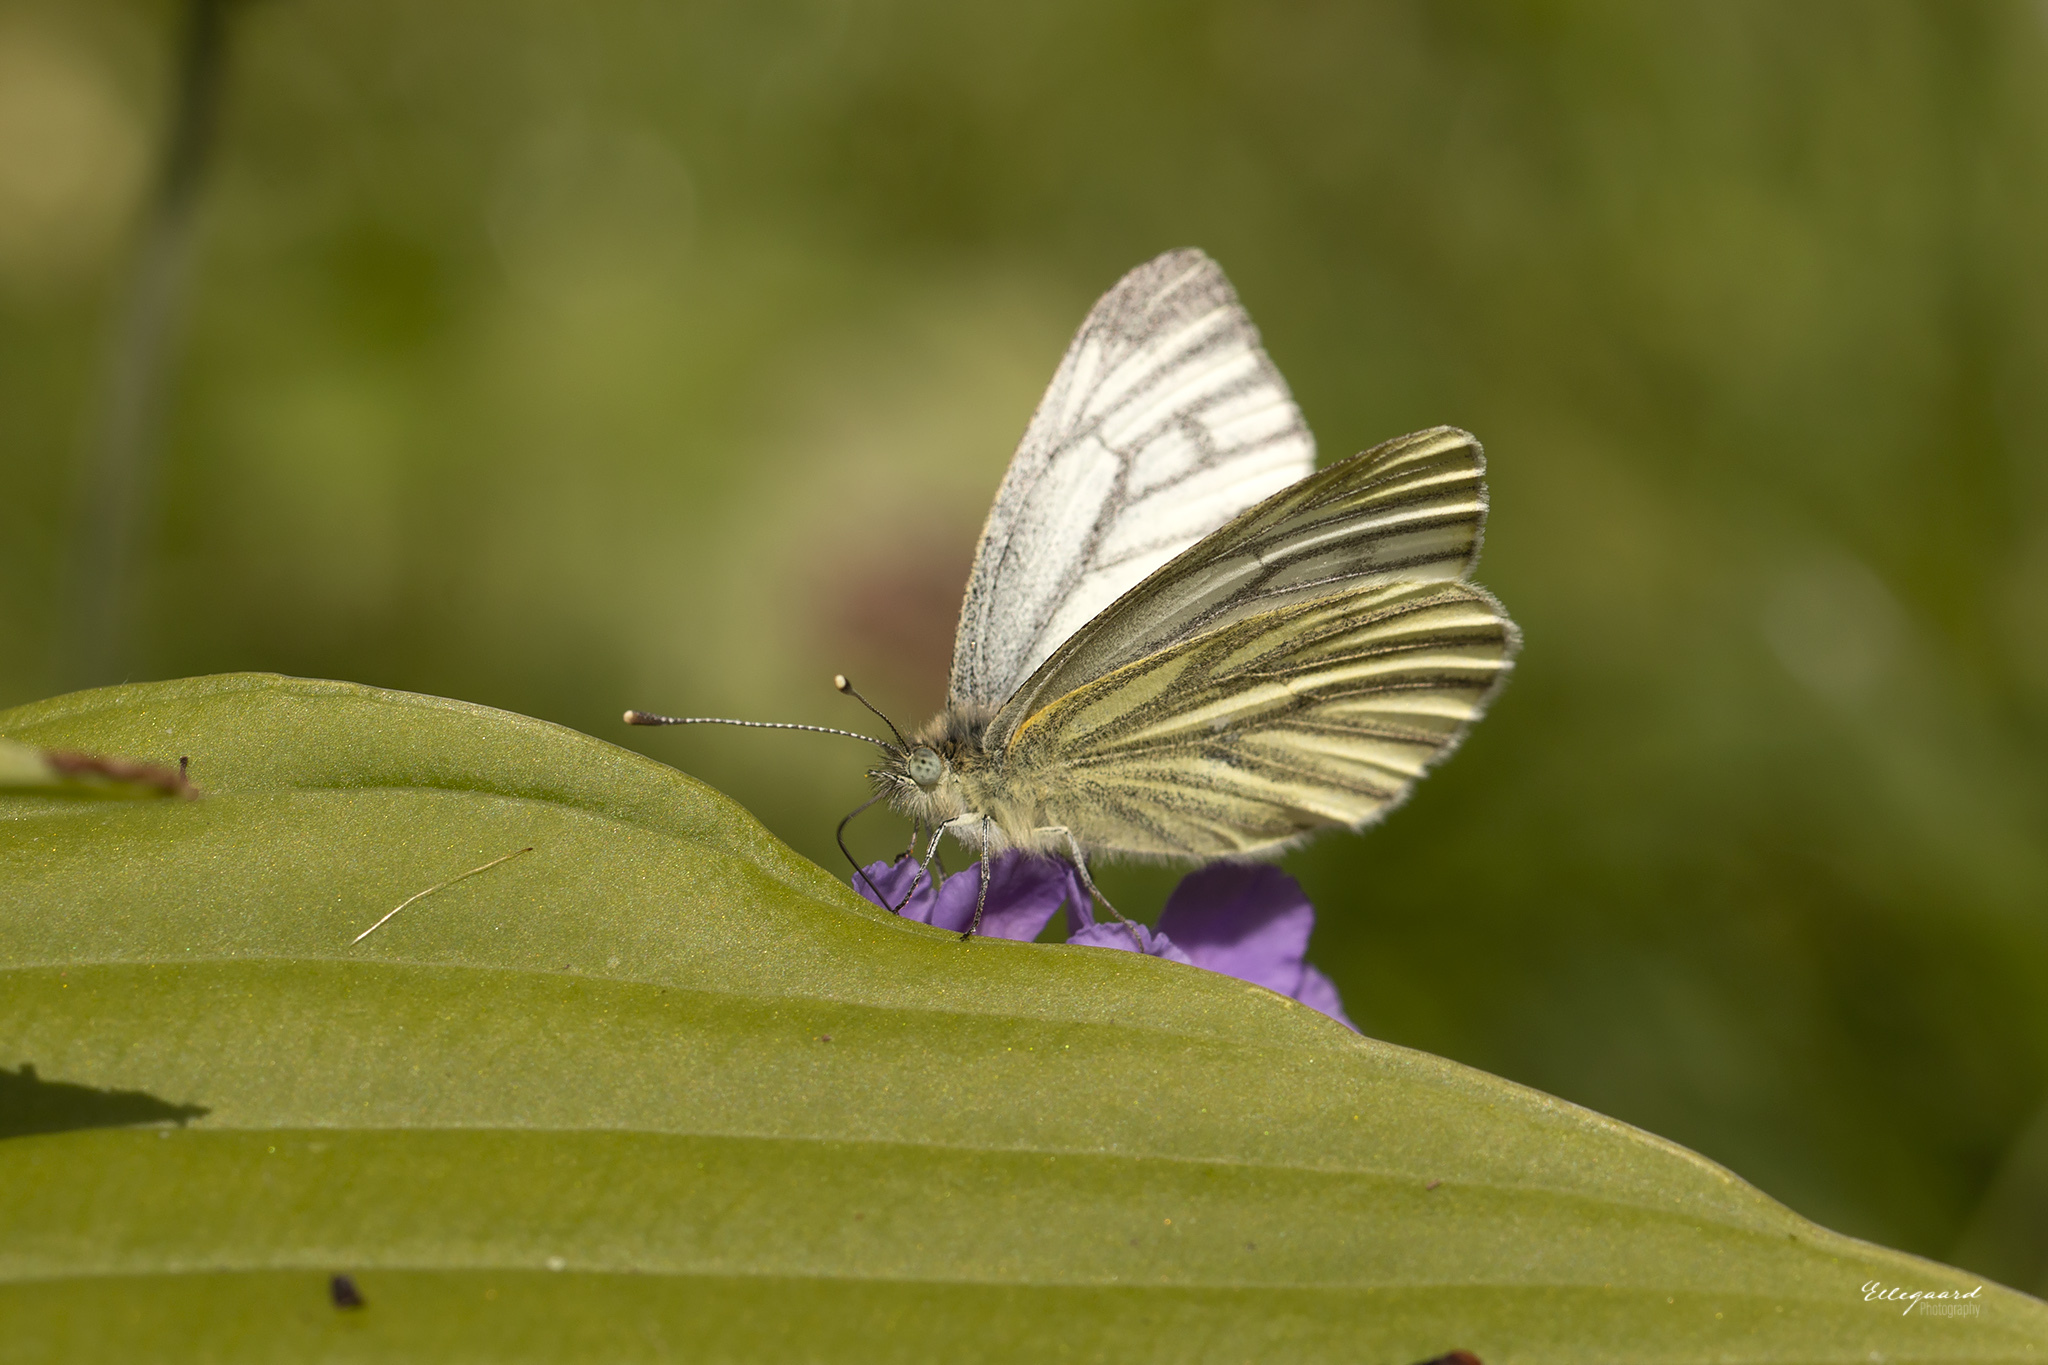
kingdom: Animalia
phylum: Arthropoda
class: Insecta
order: Lepidoptera
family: Pieridae
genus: Pieris
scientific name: Pieris napi
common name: Green-veined white
